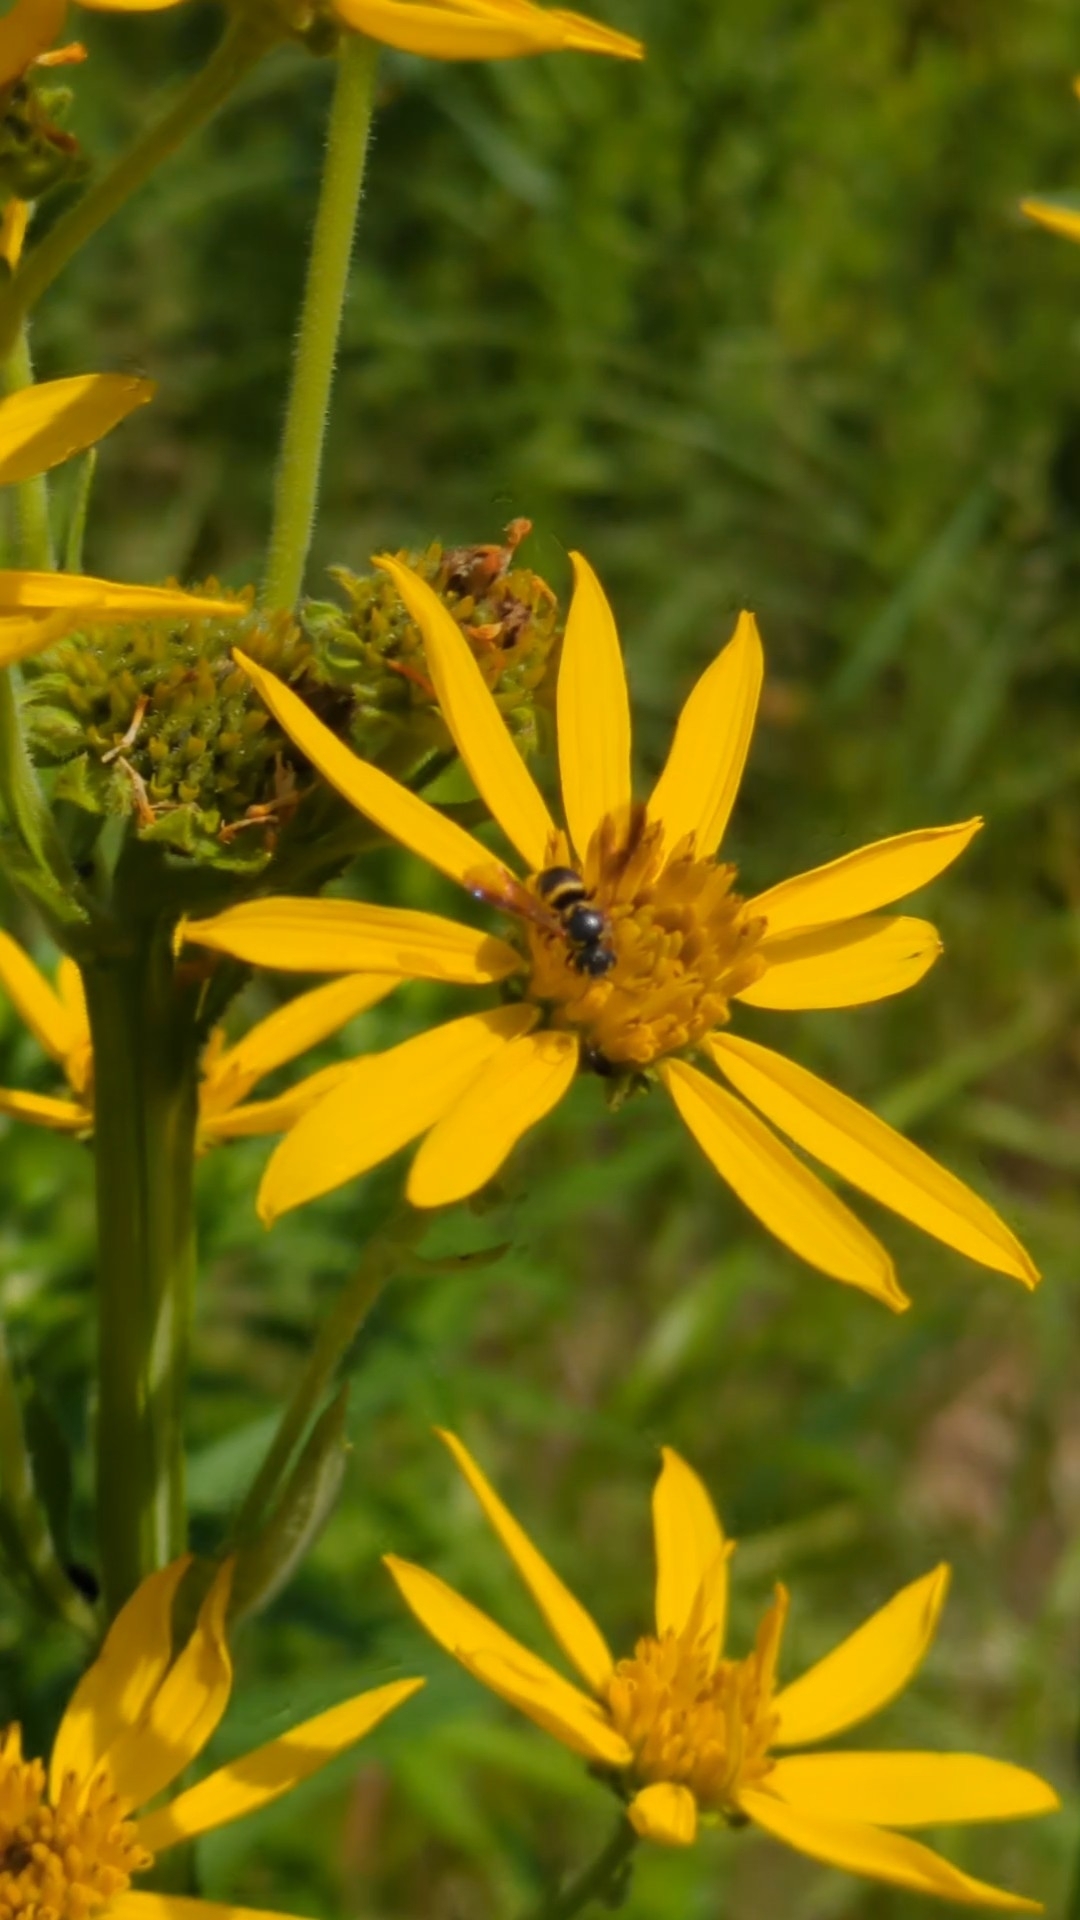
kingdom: Animalia
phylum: Arthropoda
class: Insecta
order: Hymenoptera
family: Megachilidae
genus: Stelis
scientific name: Stelis louisae
